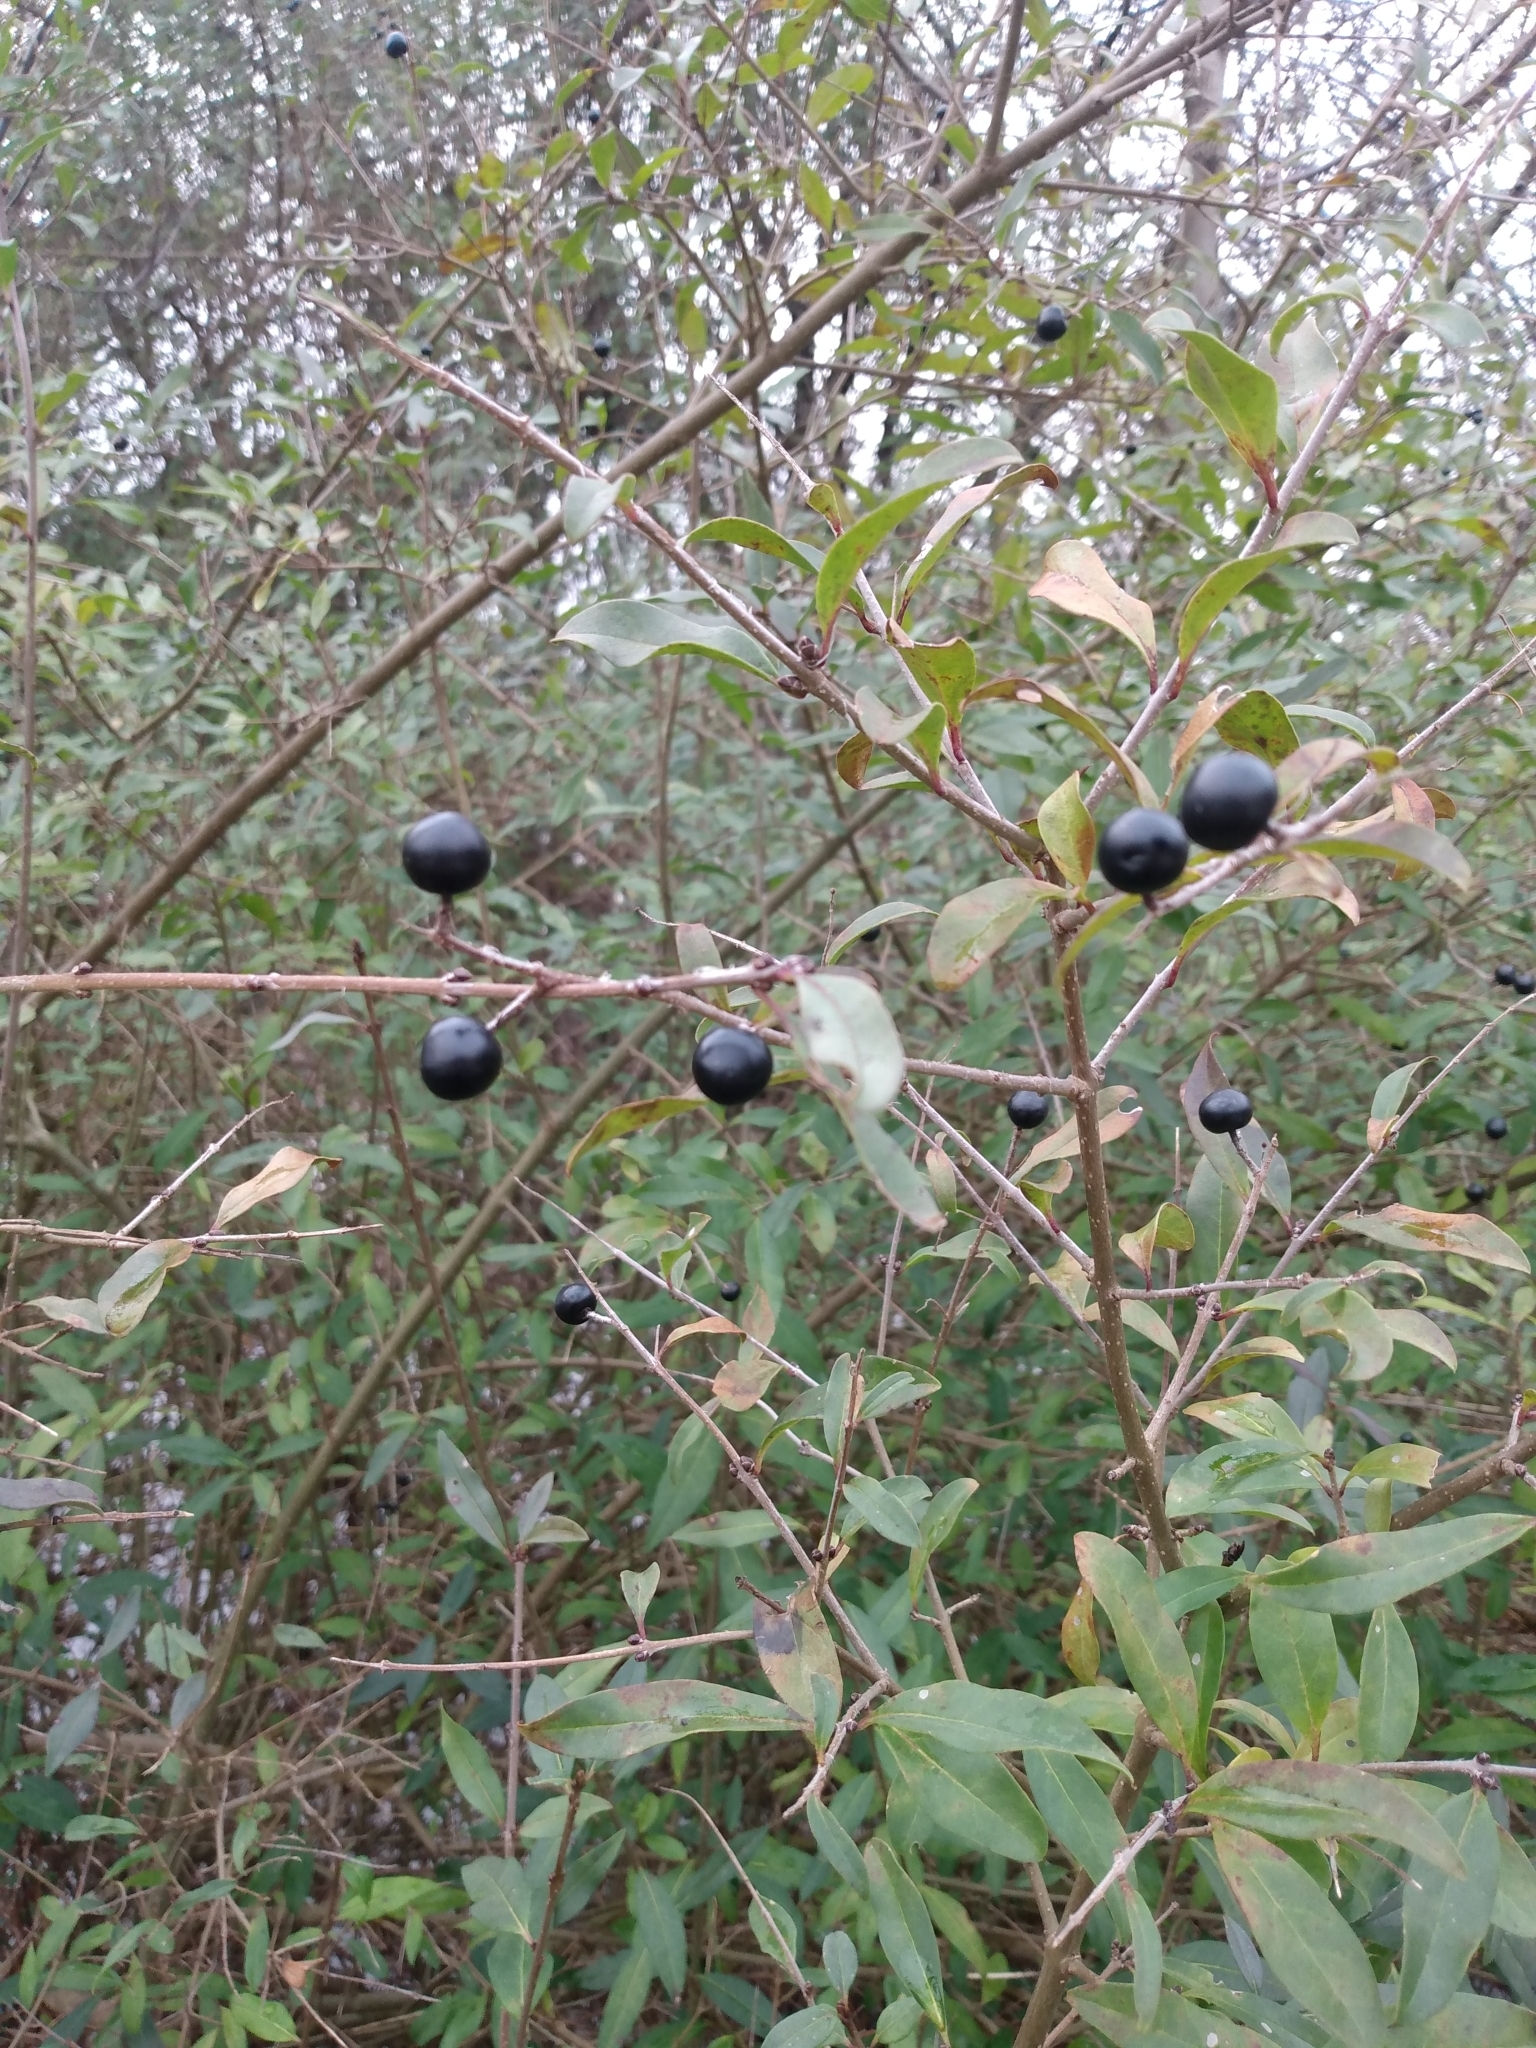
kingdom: Plantae
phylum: Tracheophyta
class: Magnoliopsida
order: Lamiales
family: Oleaceae
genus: Ligustrum
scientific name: Ligustrum vulgare
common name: Wild privet
